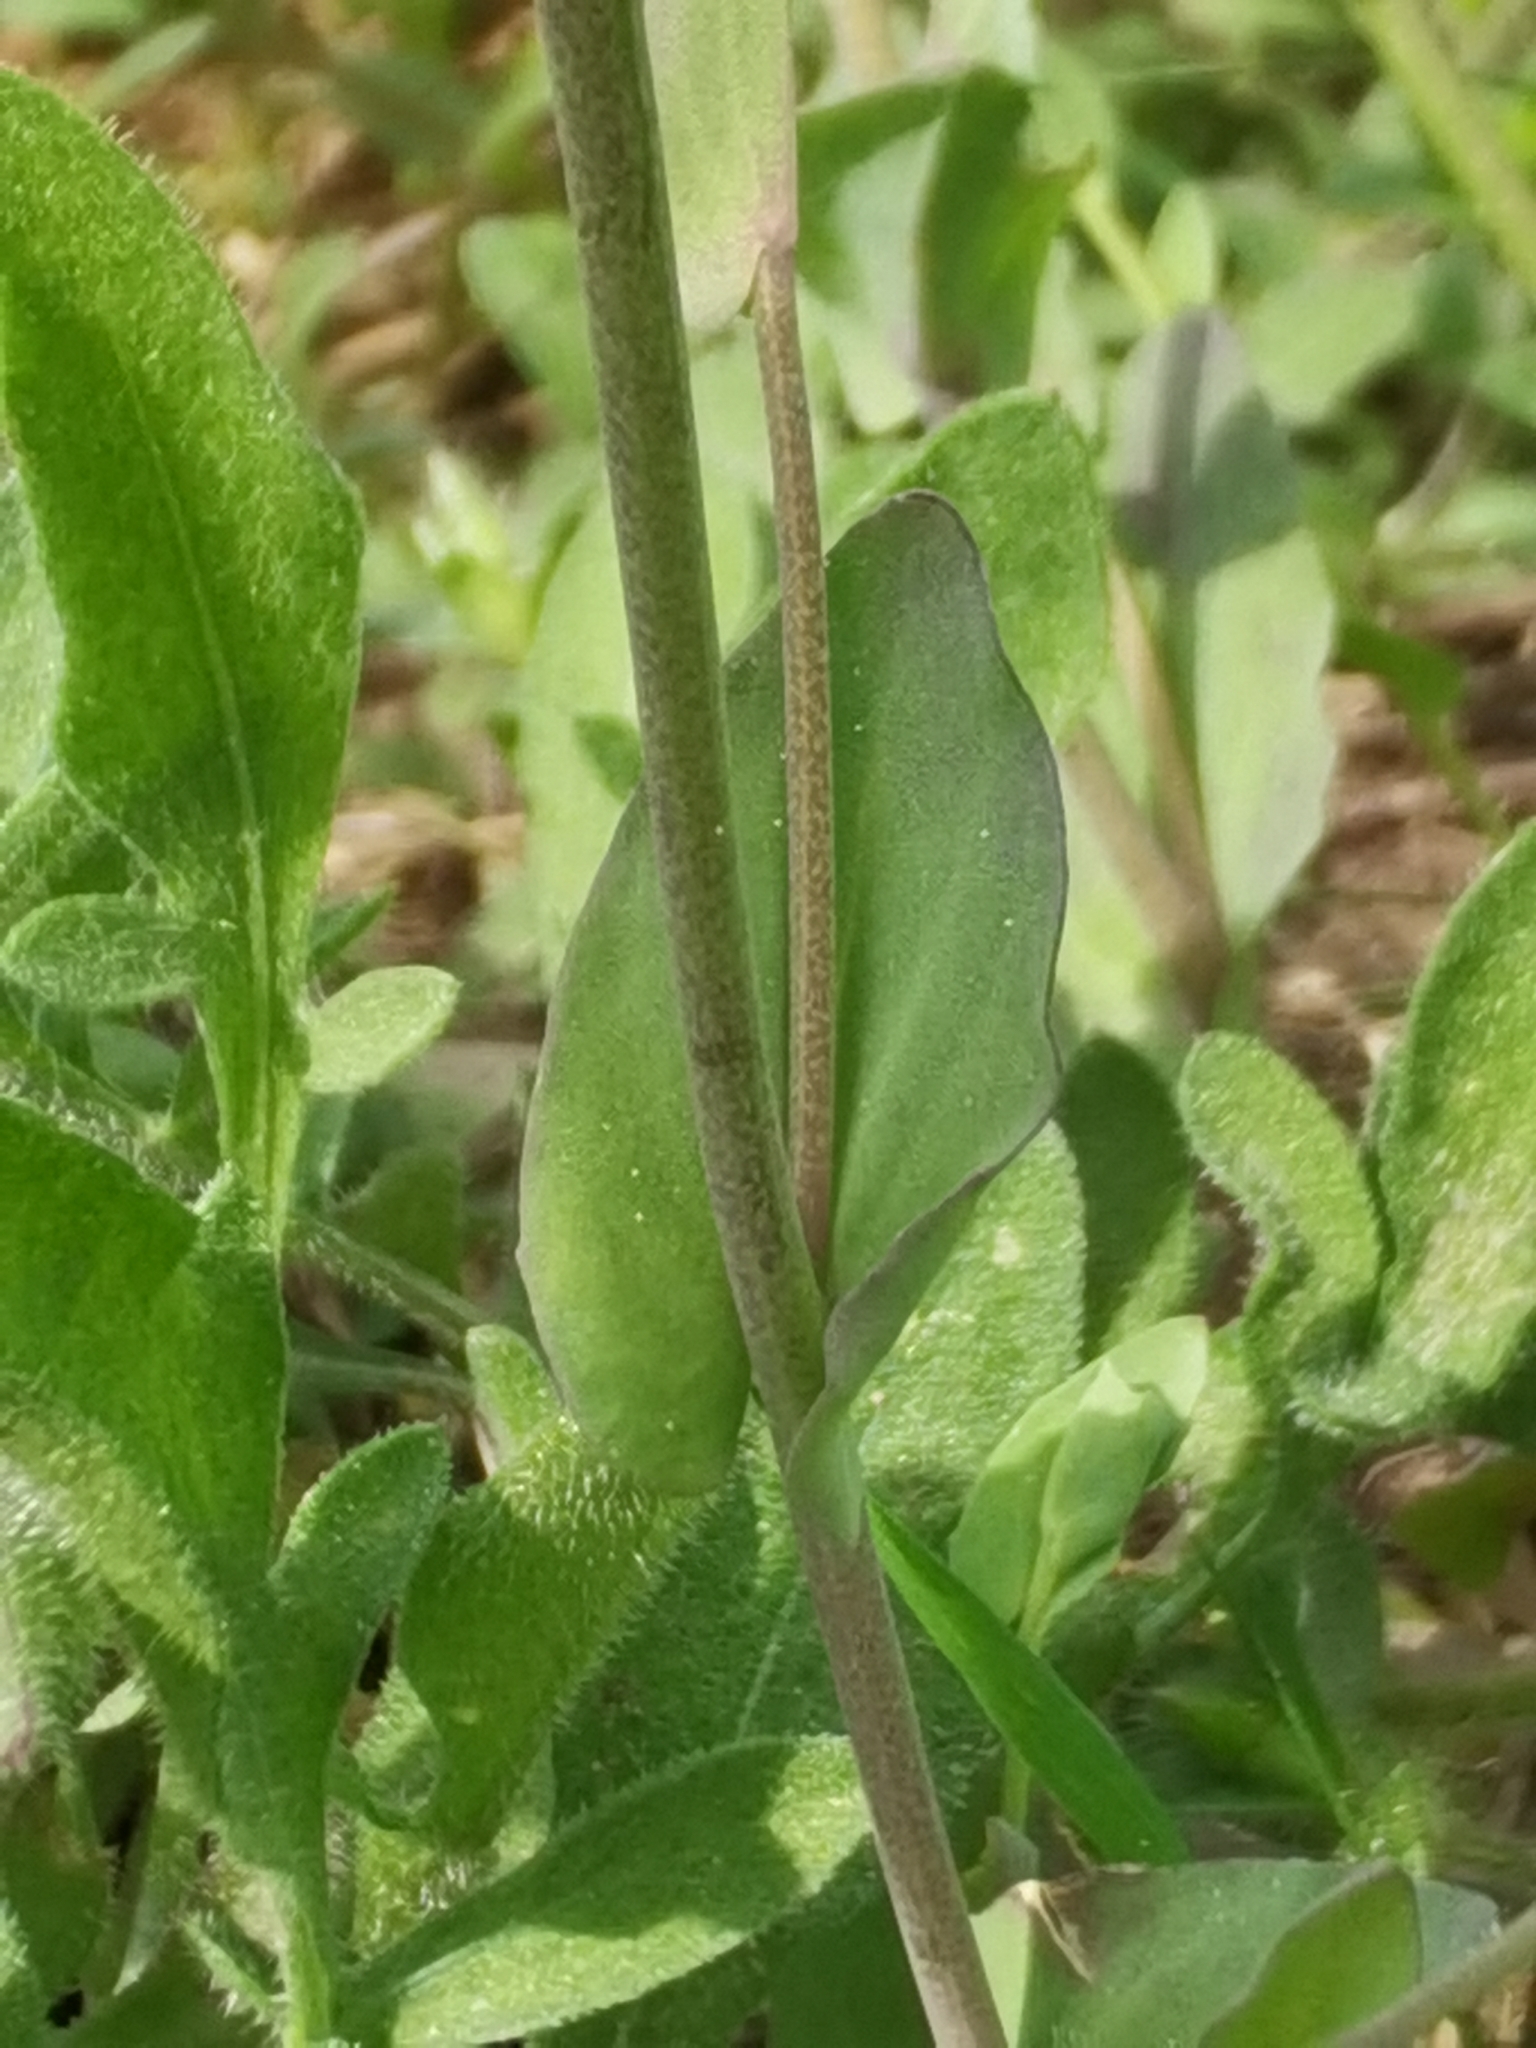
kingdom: Plantae
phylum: Tracheophyta
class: Magnoliopsida
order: Brassicales
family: Brassicaceae
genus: Noccaea
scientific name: Noccaea perfoliata
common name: Perfoliate pennycress
